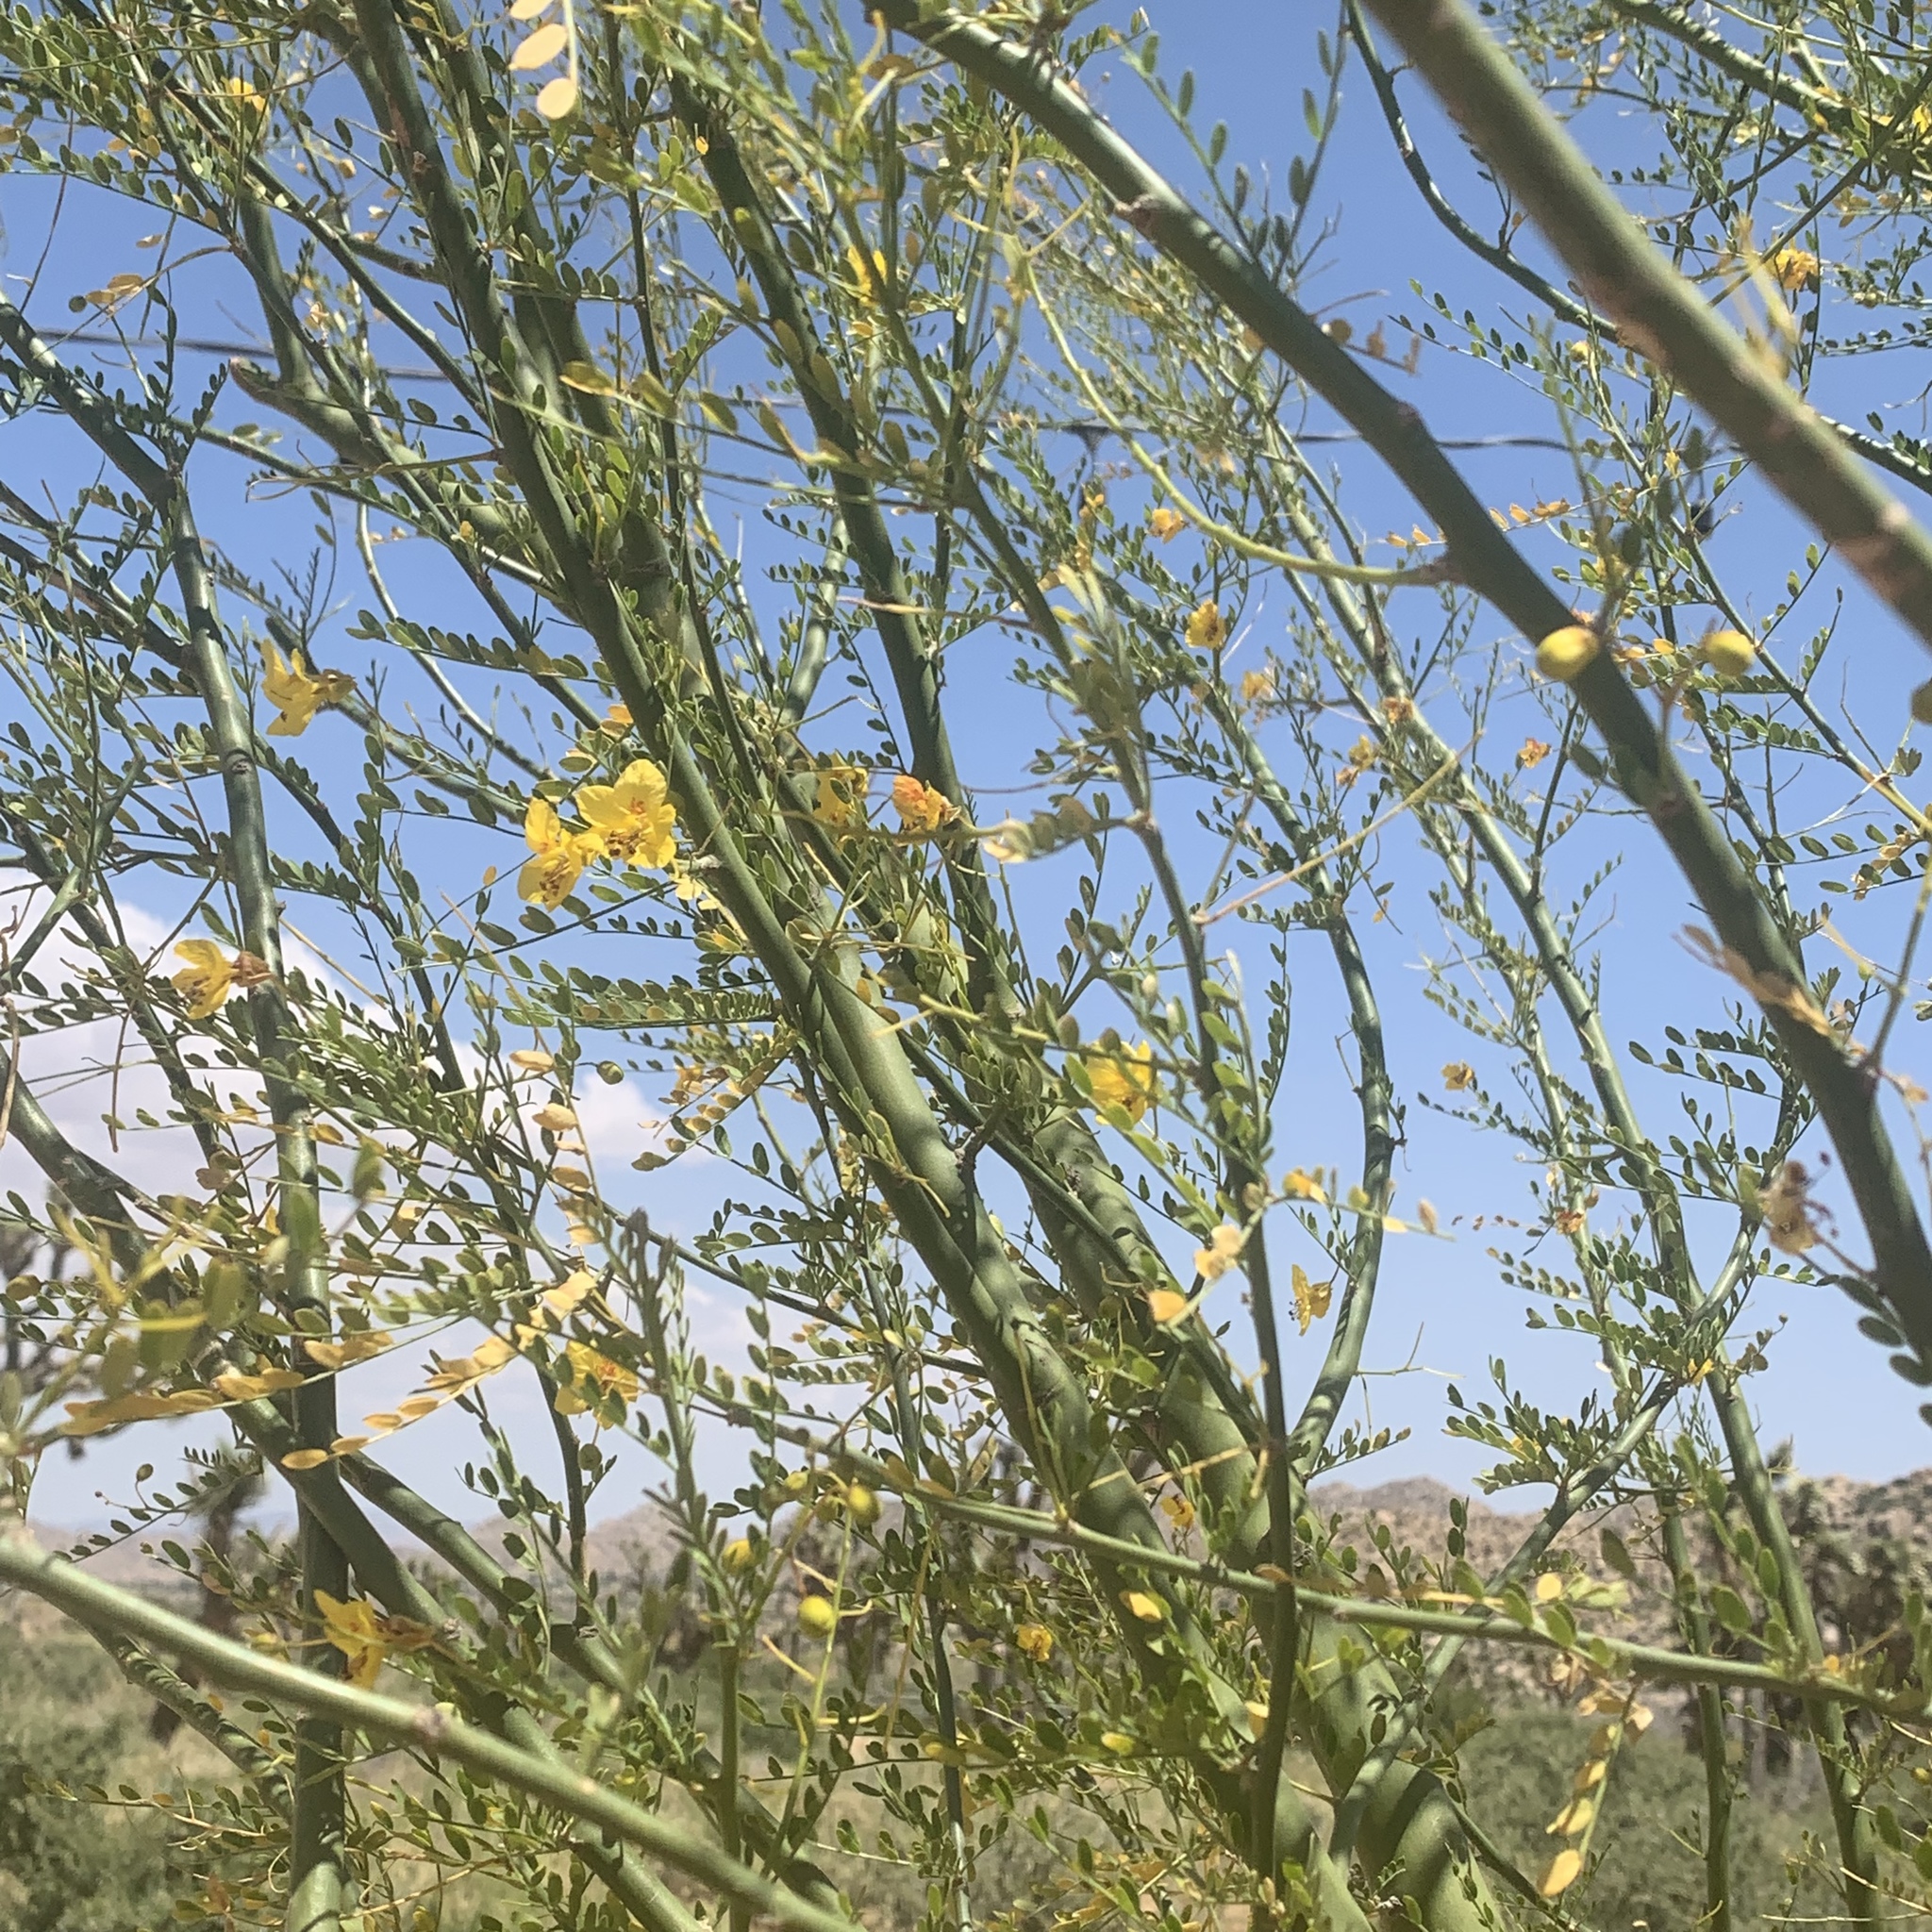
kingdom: Plantae
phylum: Tracheophyta
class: Magnoliopsida
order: Fabales
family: Fabaceae
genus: Parkinsonia
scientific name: Parkinsonia aculeata
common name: Jerusalem thorn
